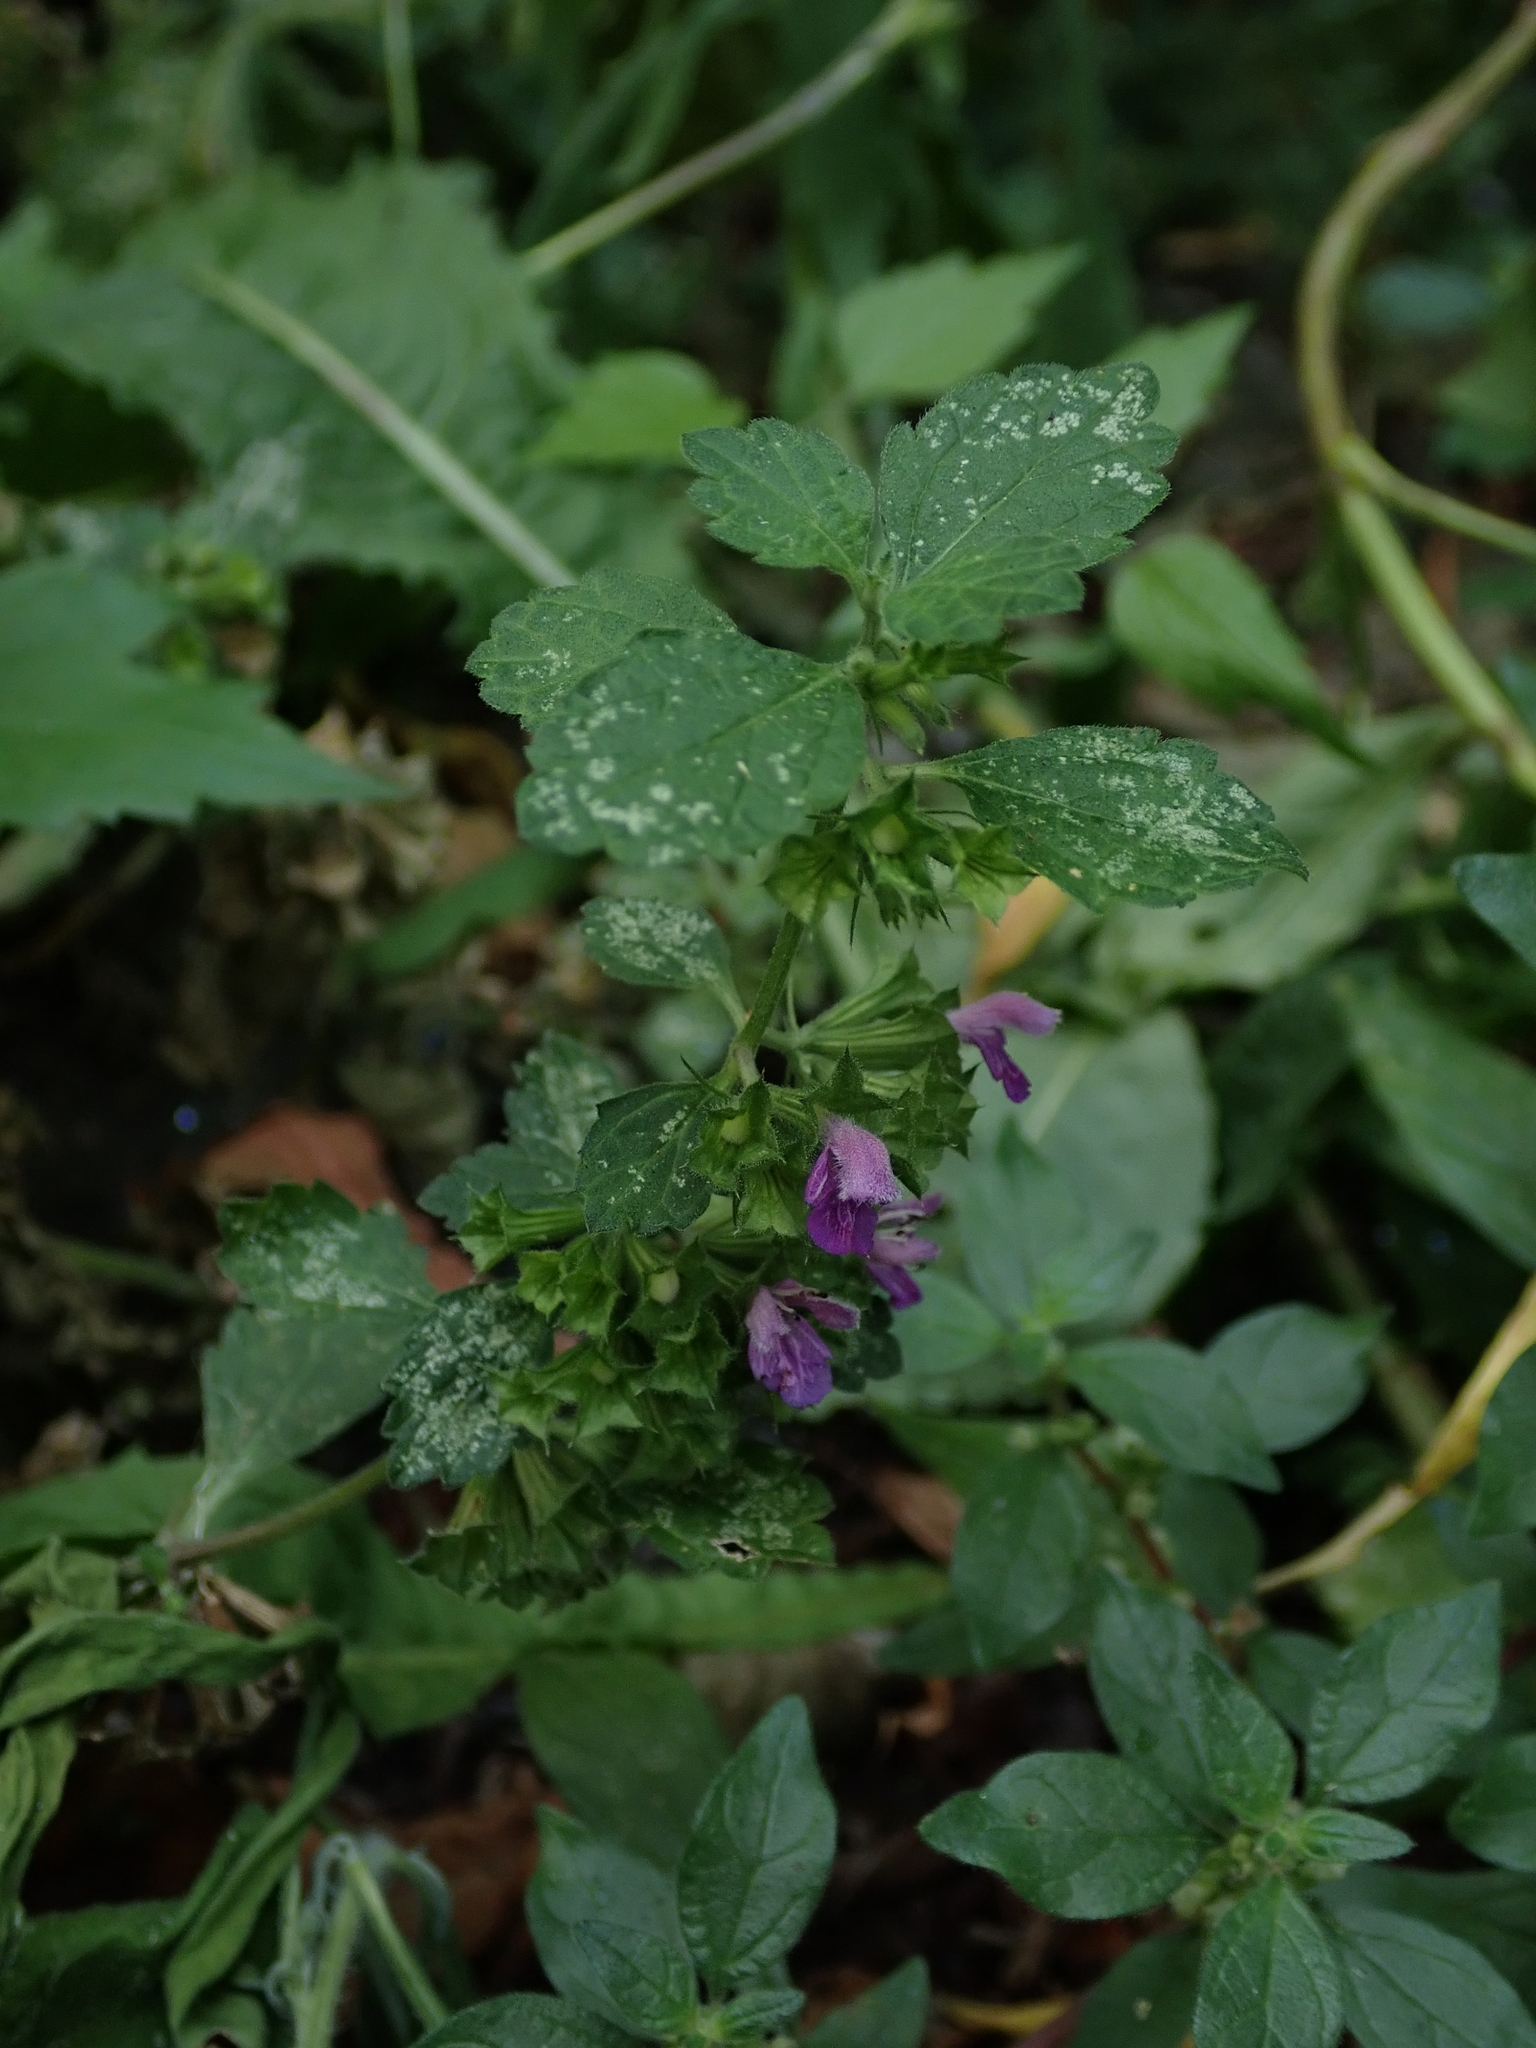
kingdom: Plantae
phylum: Tracheophyta
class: Magnoliopsida
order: Lamiales
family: Lamiaceae
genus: Ballota
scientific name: Ballota nigra
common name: Black horehound
